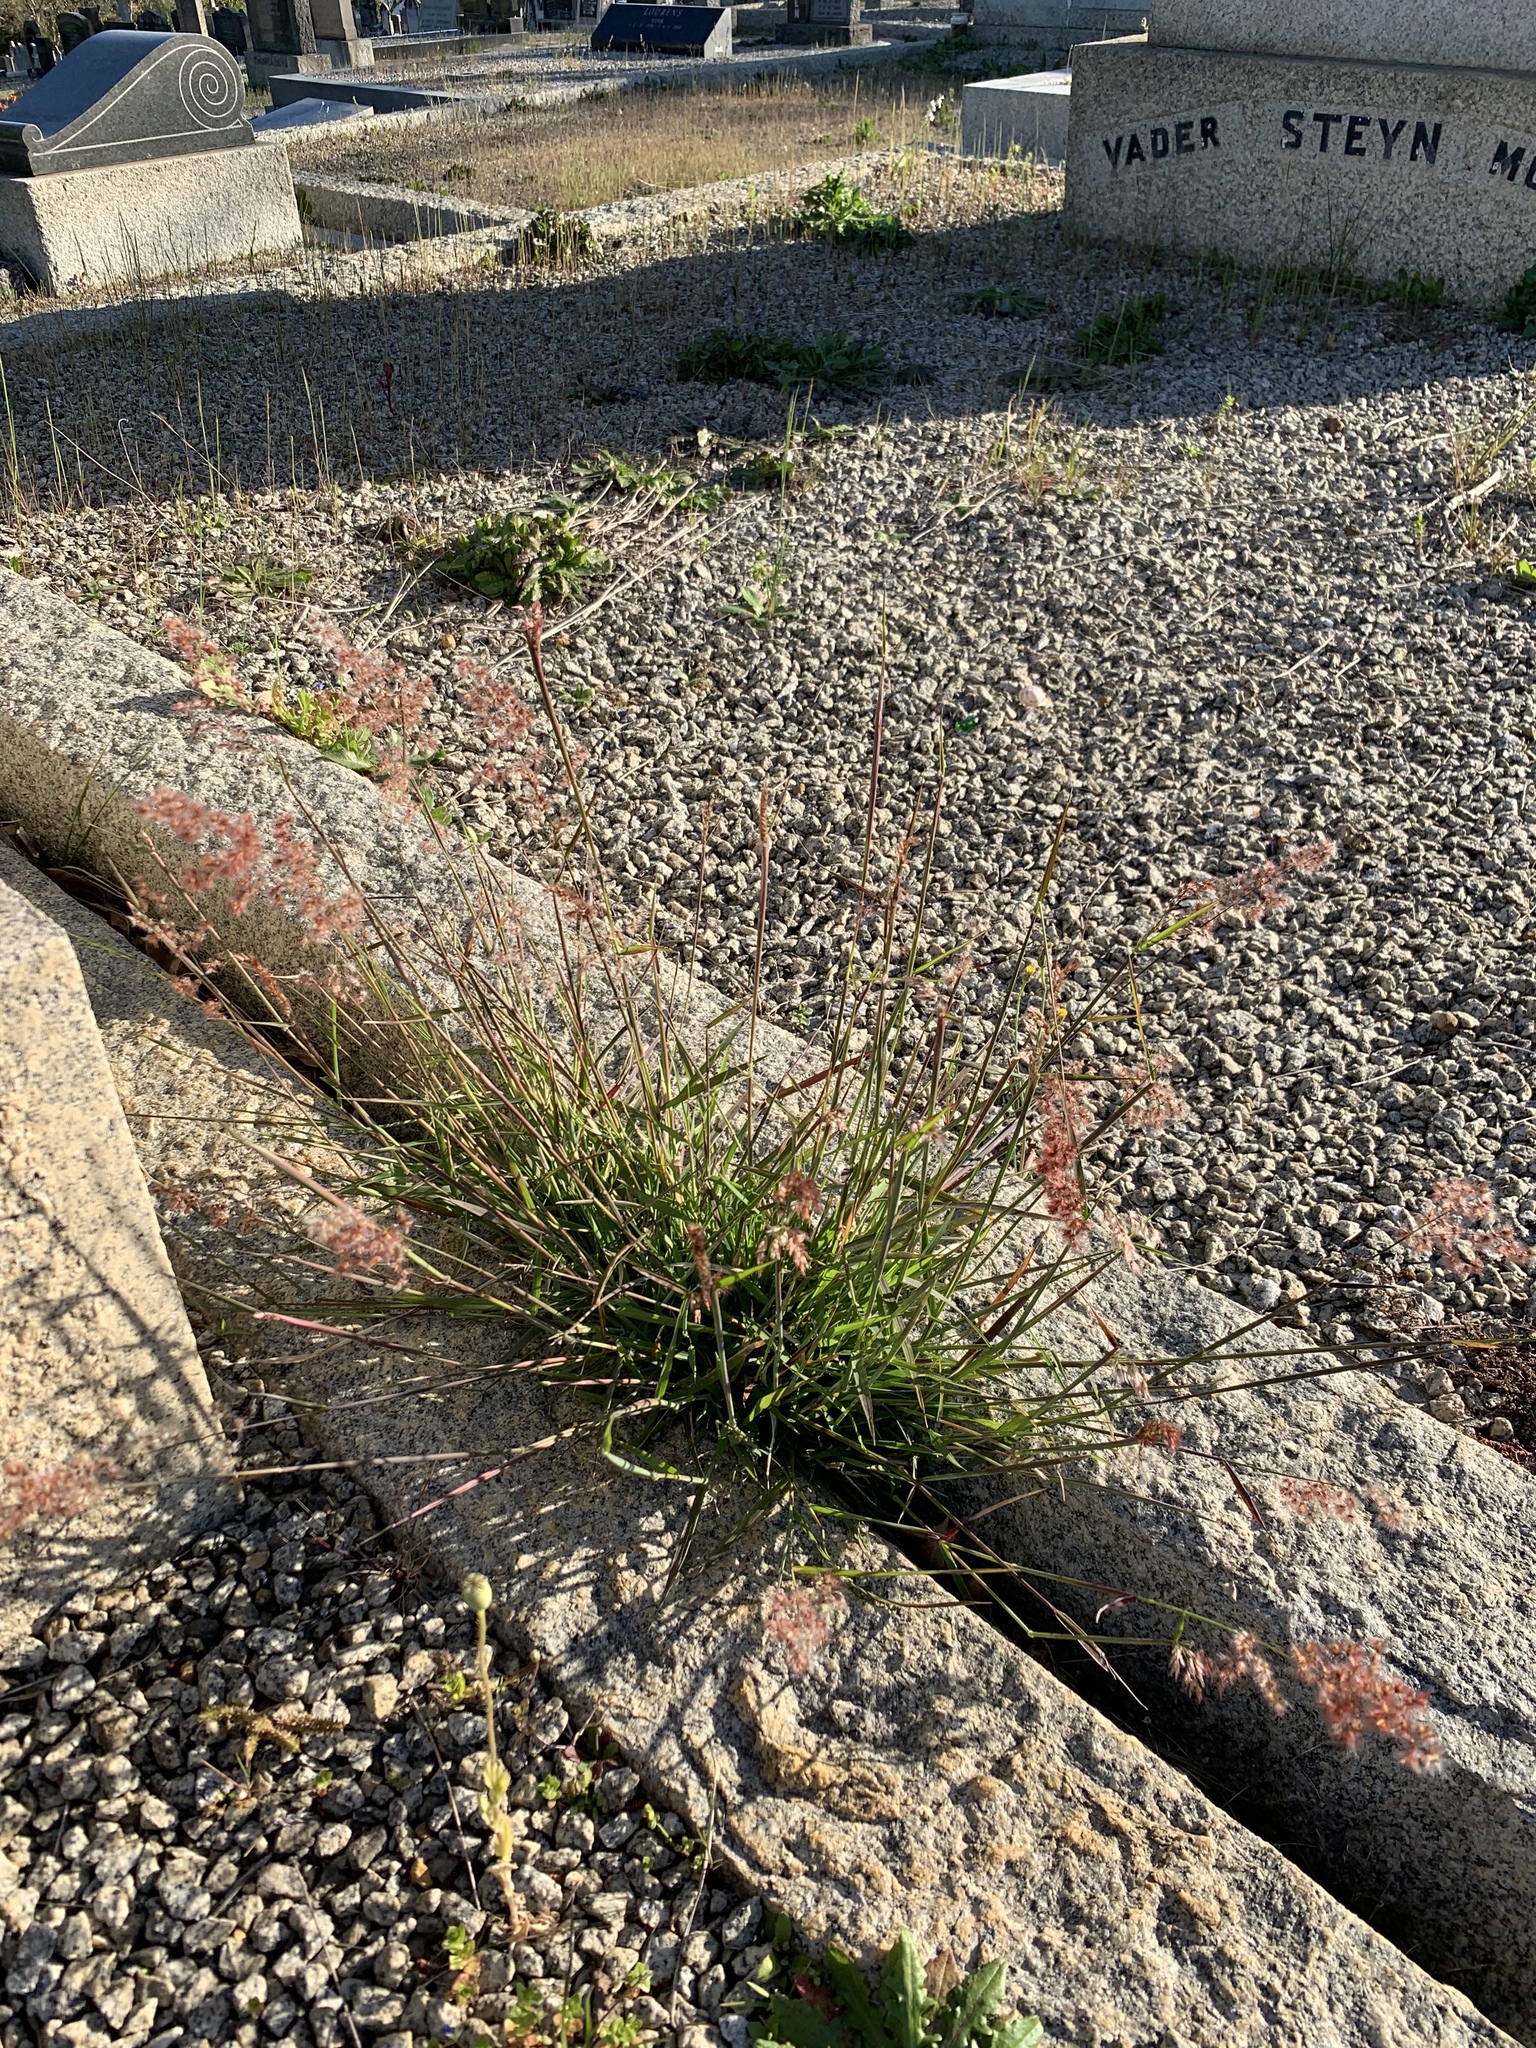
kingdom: Plantae
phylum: Tracheophyta
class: Liliopsida
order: Poales
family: Poaceae
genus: Melinis
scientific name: Melinis repens
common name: Rose natal grass
